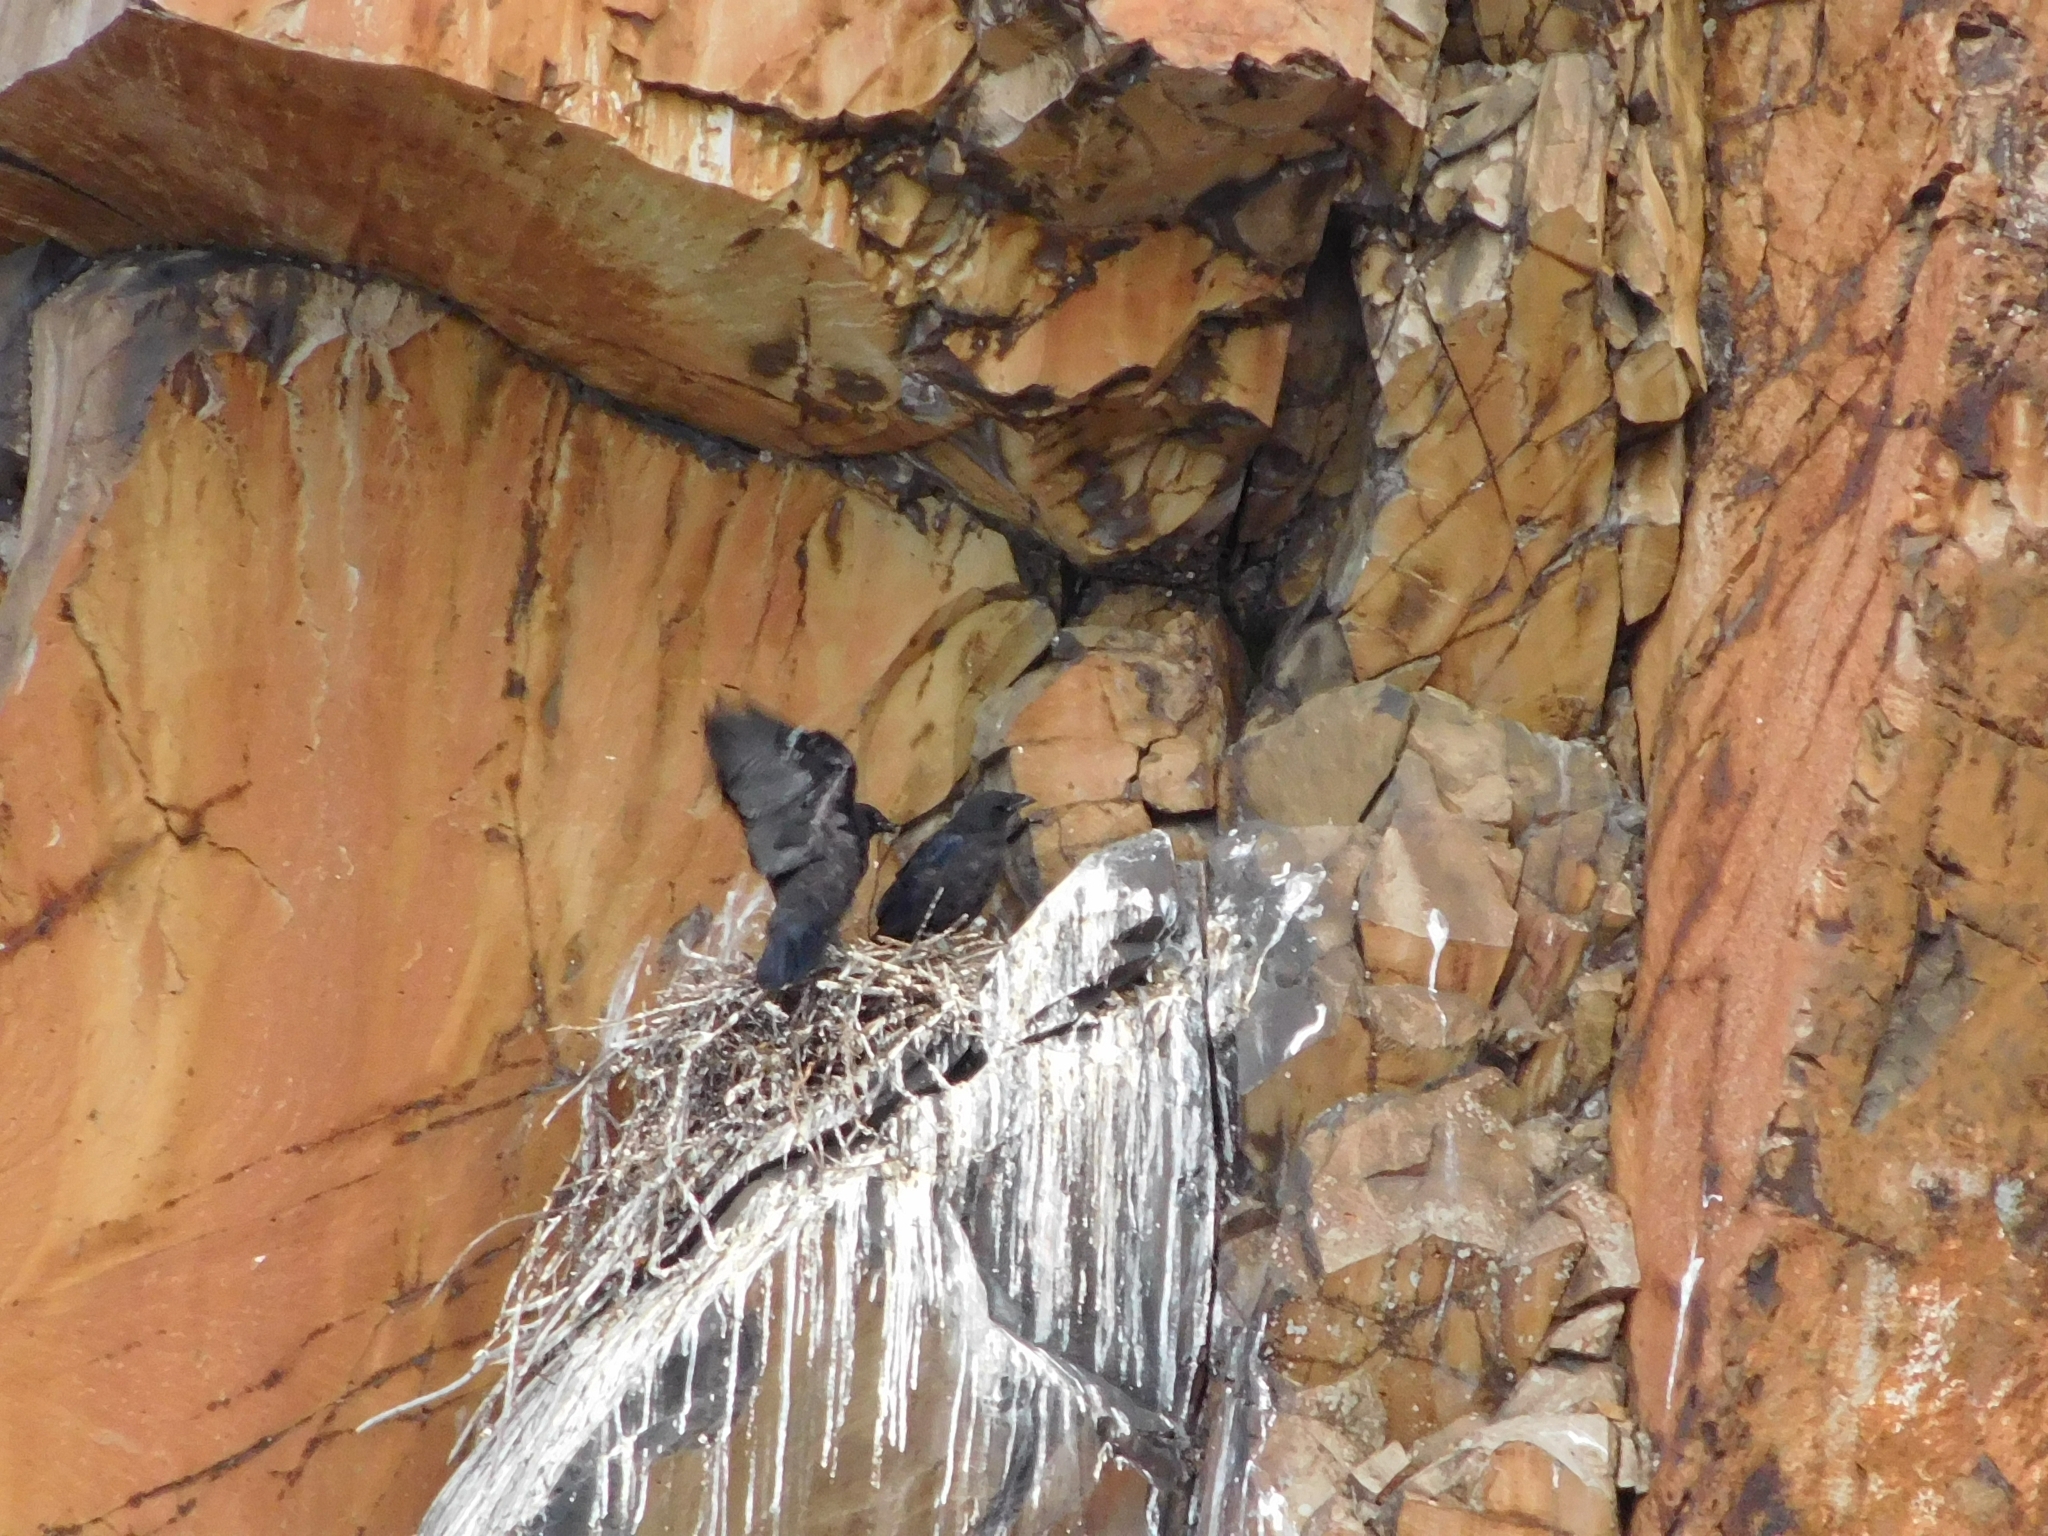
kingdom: Animalia
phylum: Chordata
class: Aves
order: Passeriformes
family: Corvidae
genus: Corvus
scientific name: Corvus corax
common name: Common raven
